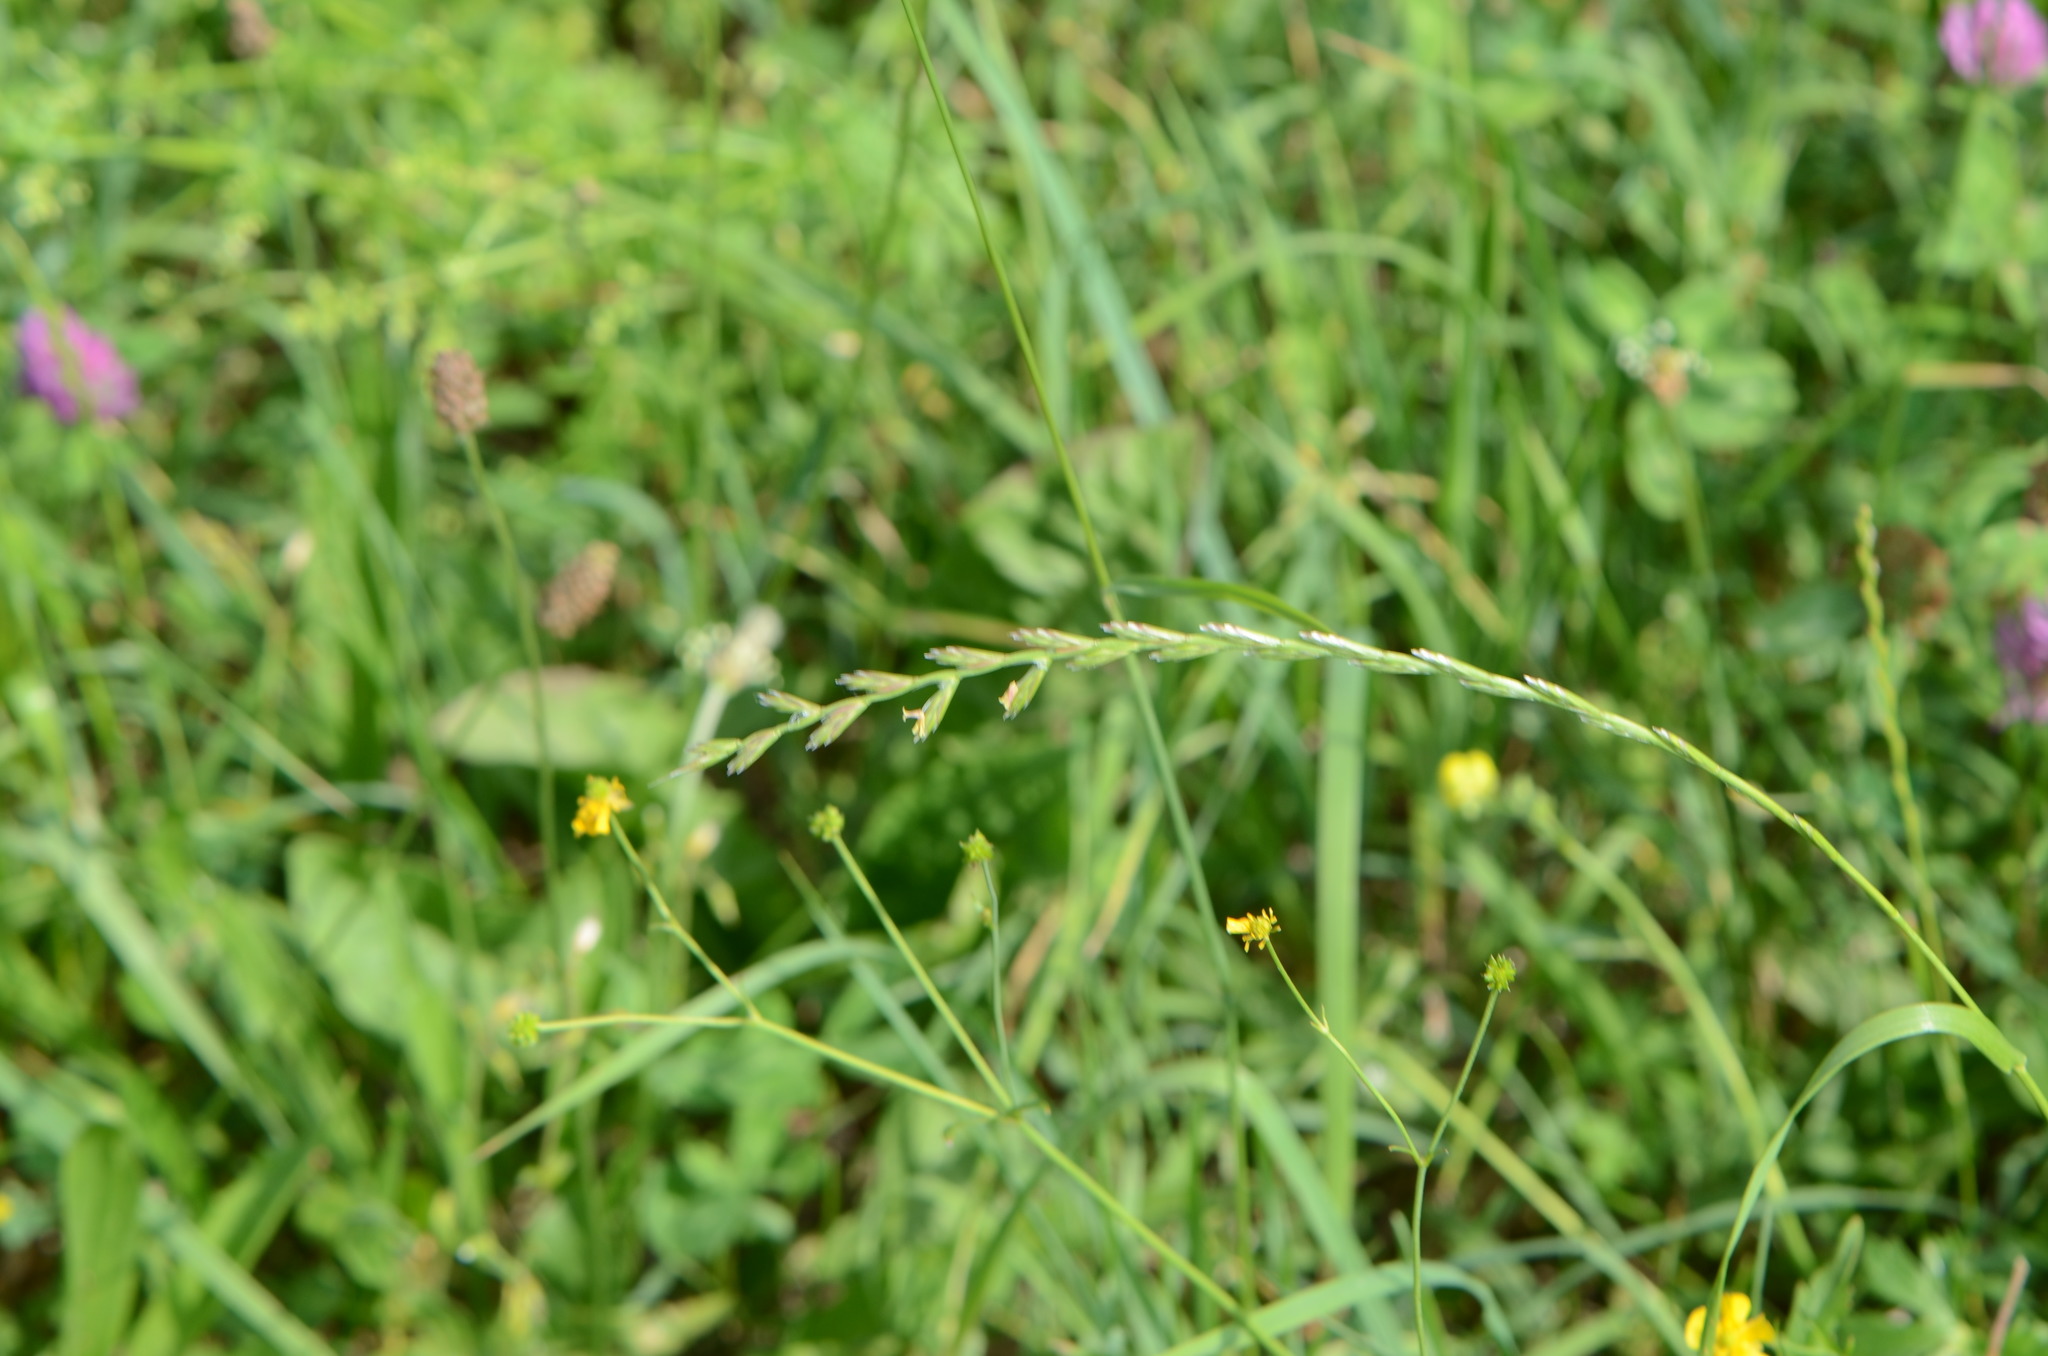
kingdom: Plantae
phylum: Tracheophyta
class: Liliopsida
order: Poales
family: Poaceae
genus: Lolium
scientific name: Lolium perenne
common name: Perennial ryegrass
